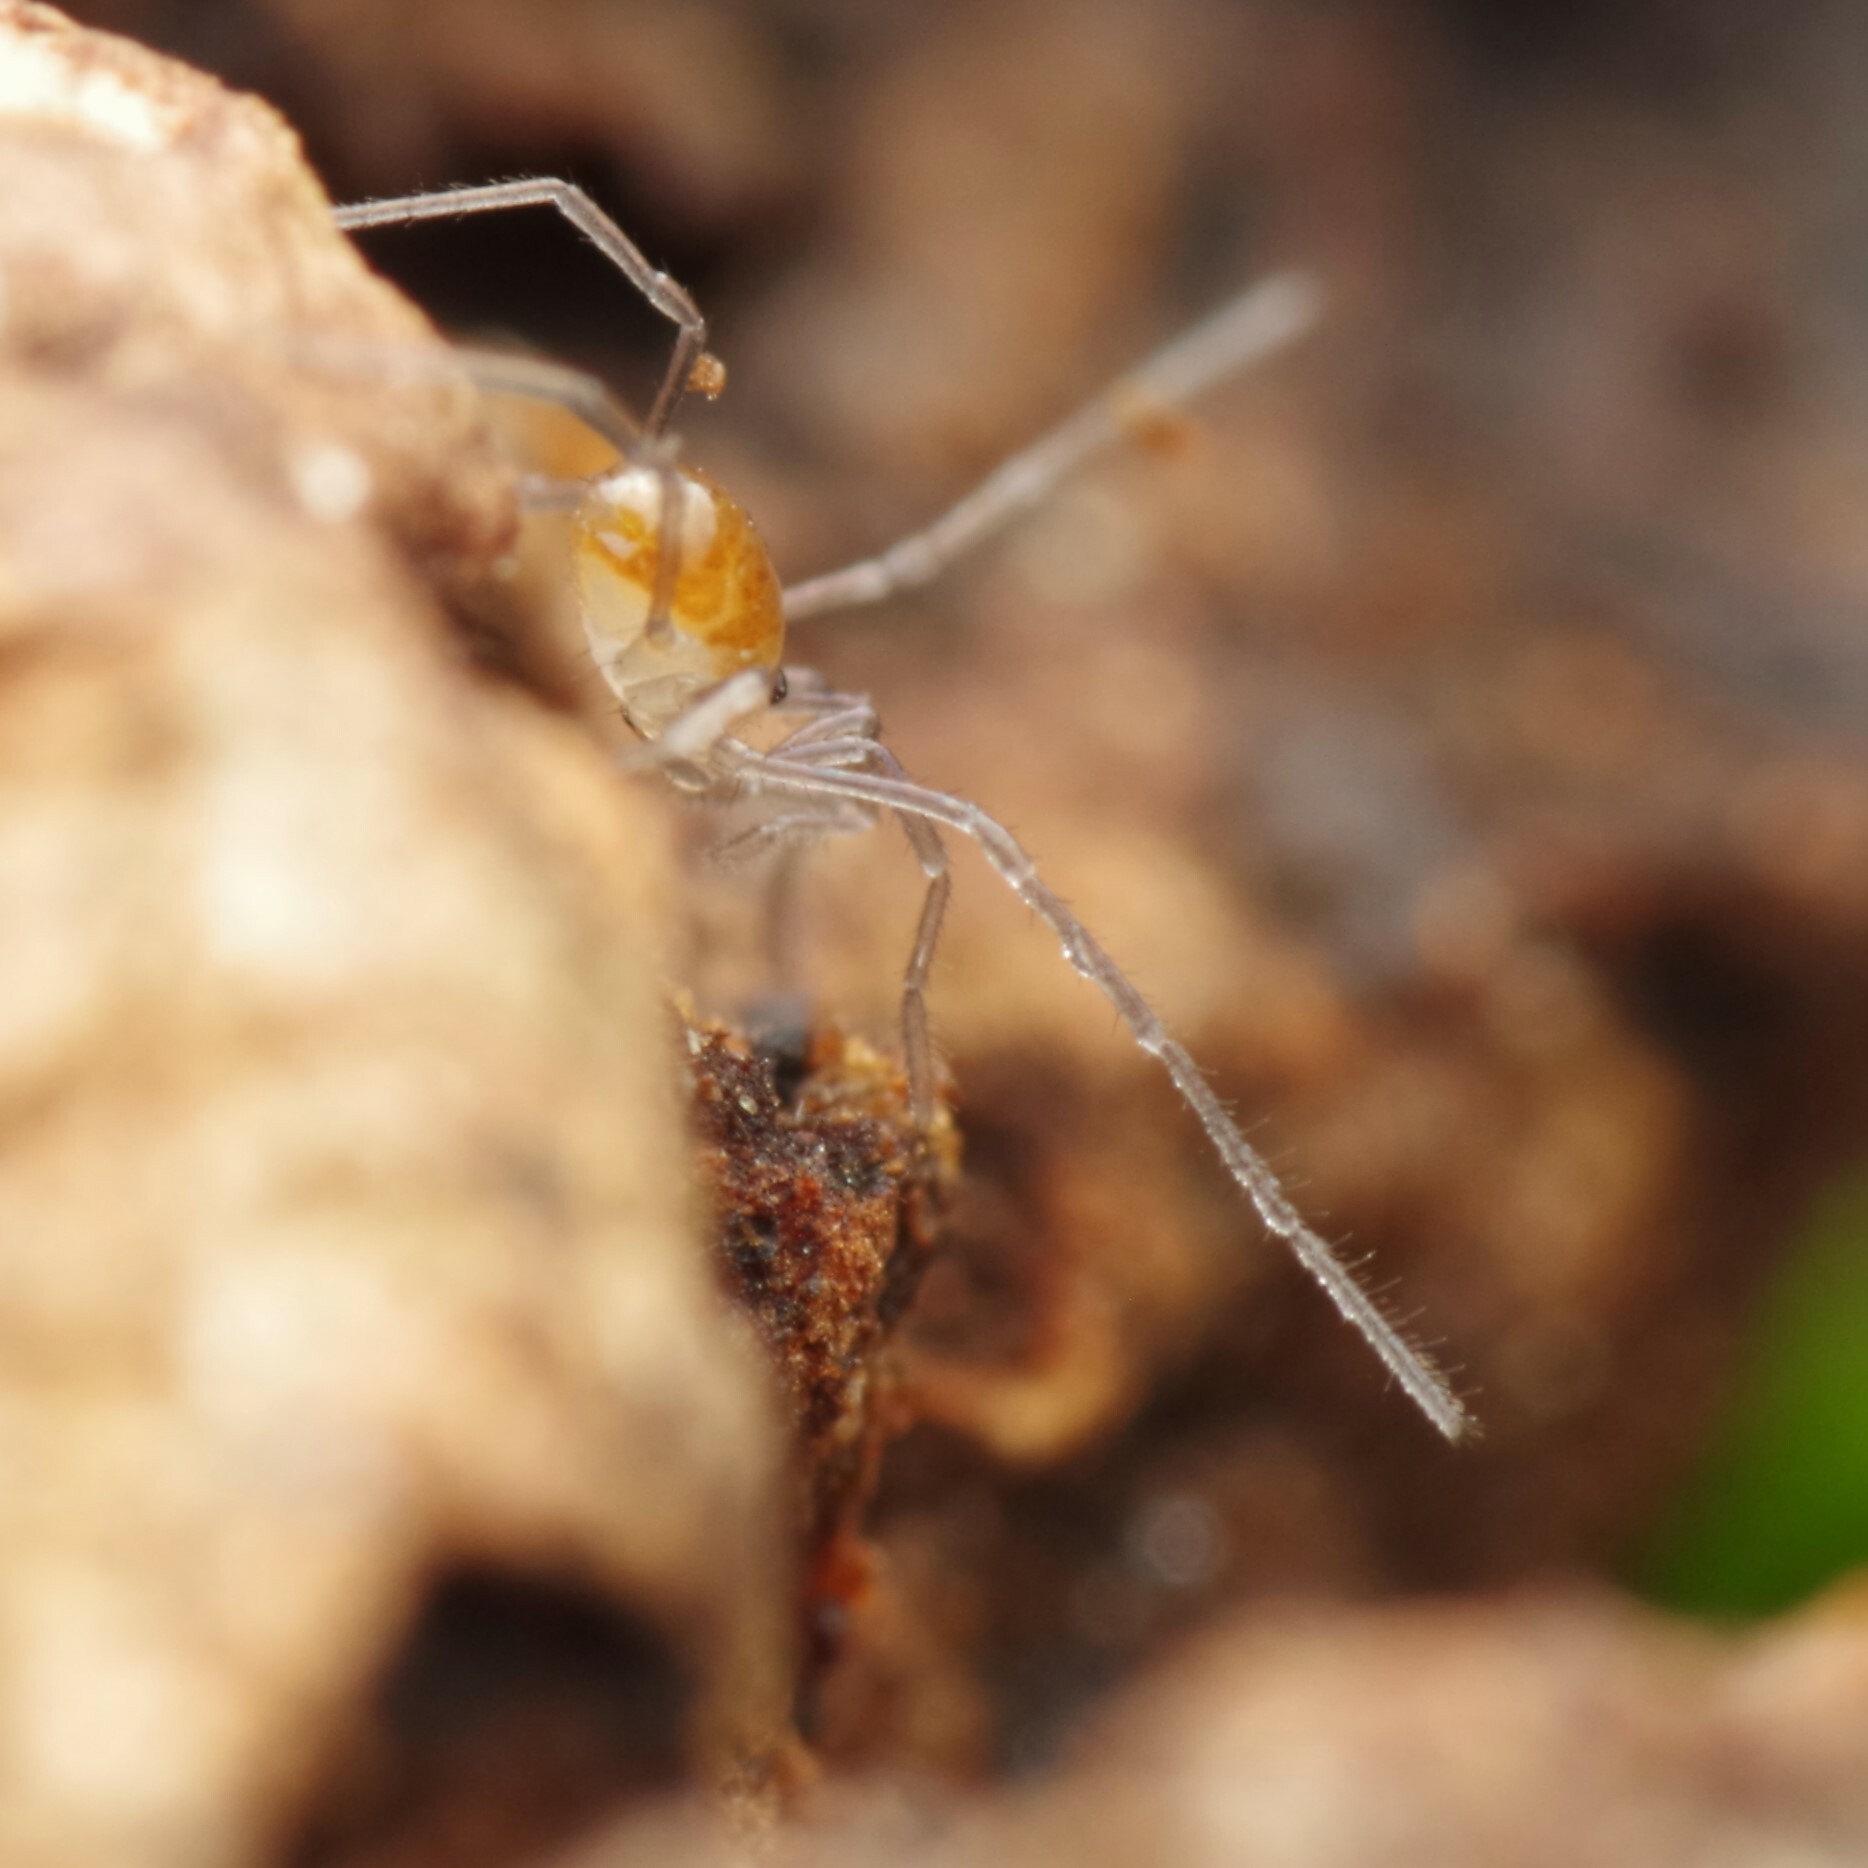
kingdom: Animalia
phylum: Arthropoda
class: Arachnida
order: Opiliones
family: Nemastomatidae
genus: Mitostoma
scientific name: Mitostoma chrysomelas
